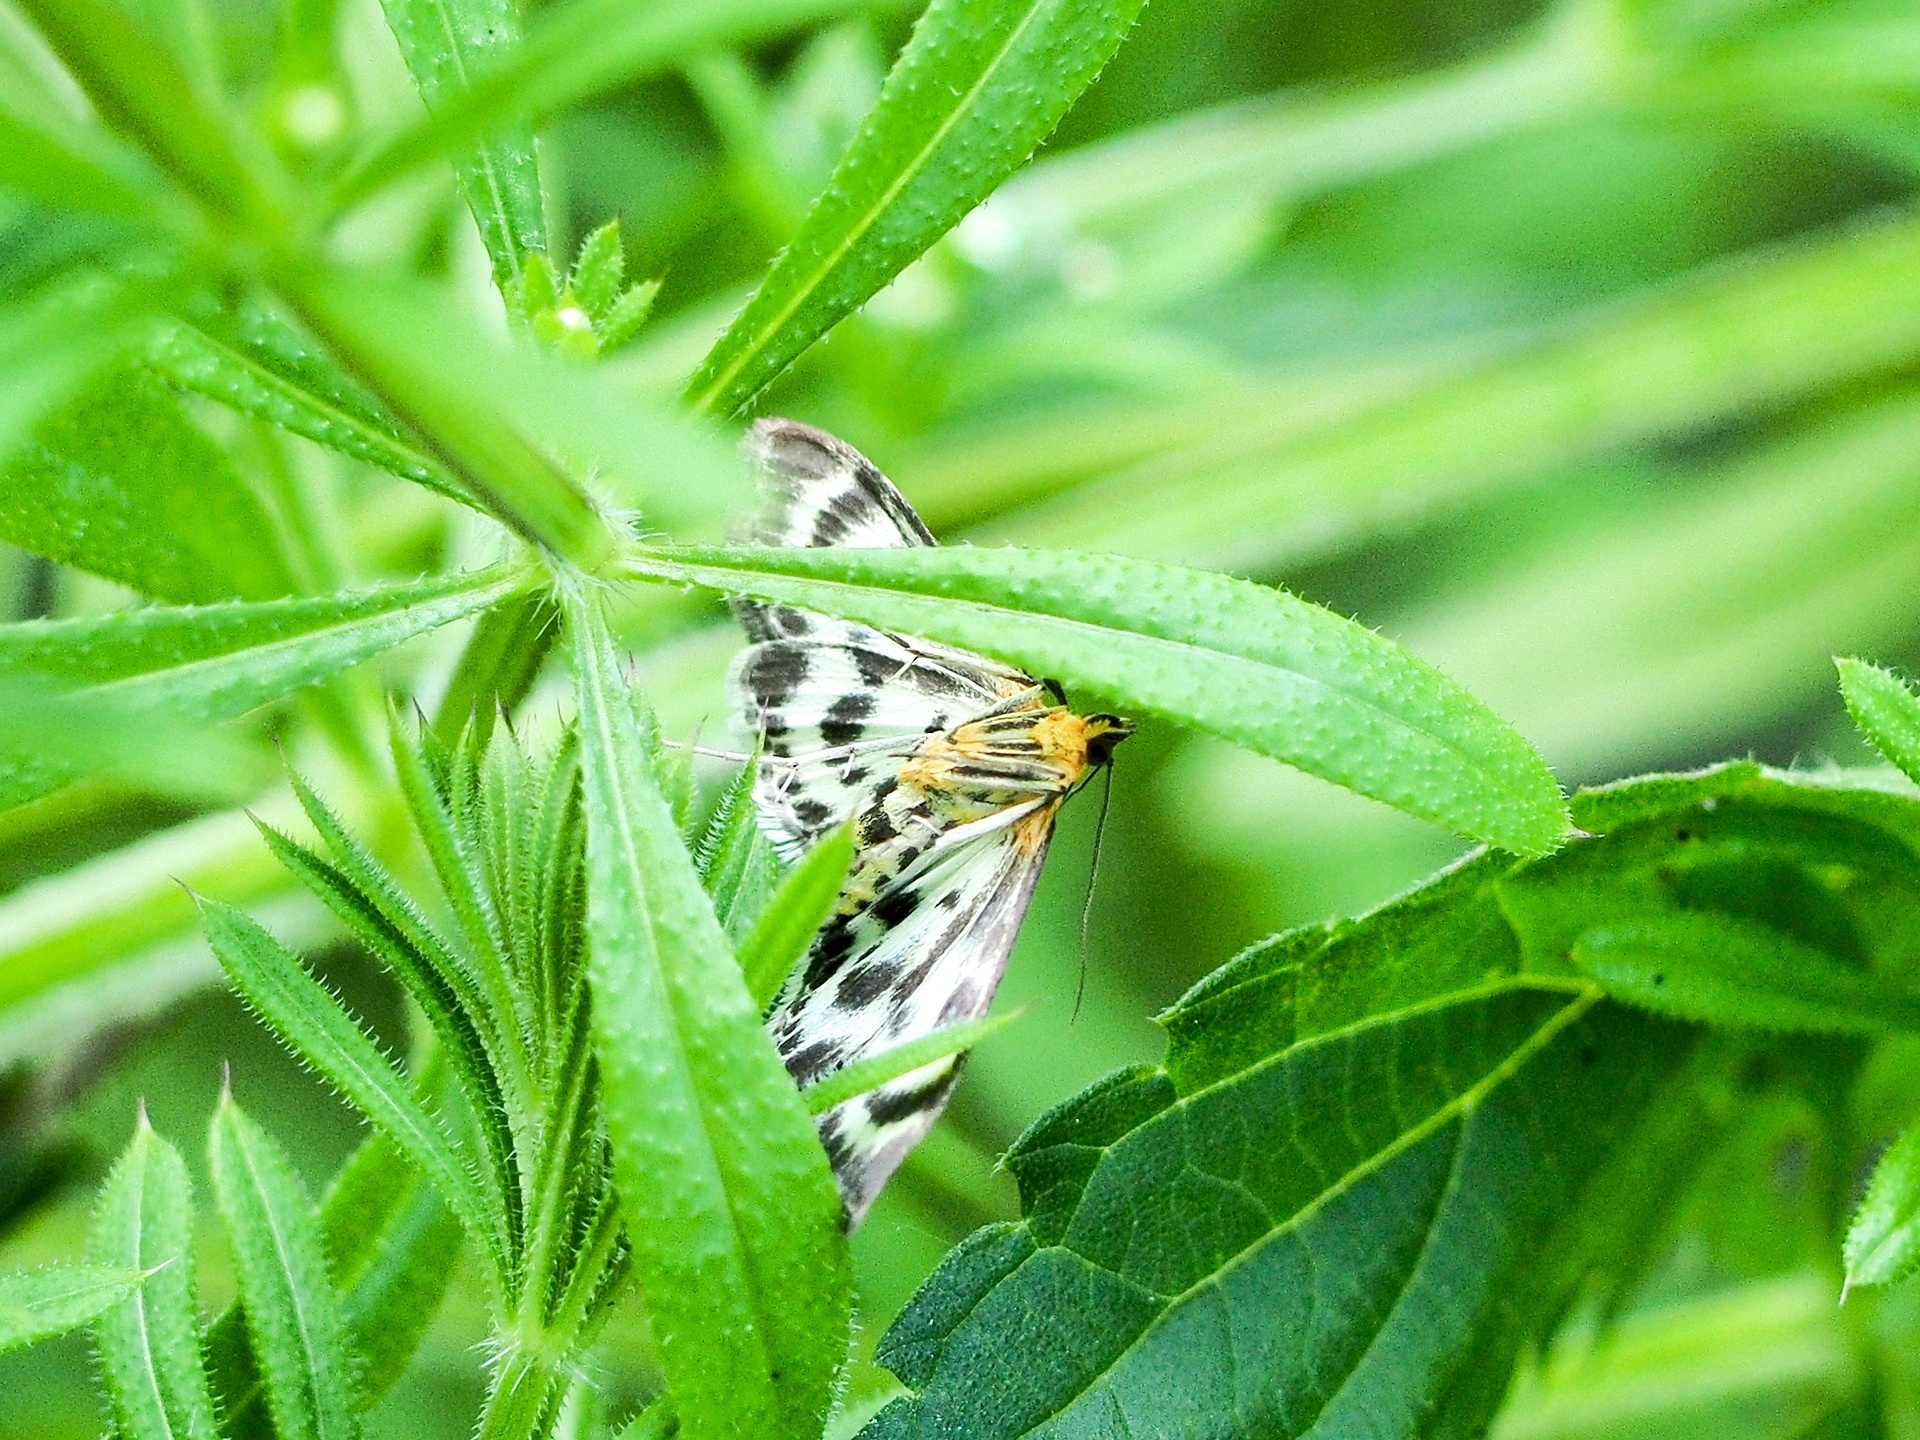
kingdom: Animalia
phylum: Arthropoda
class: Insecta
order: Lepidoptera
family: Crambidae
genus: Anania
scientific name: Anania hortulata
